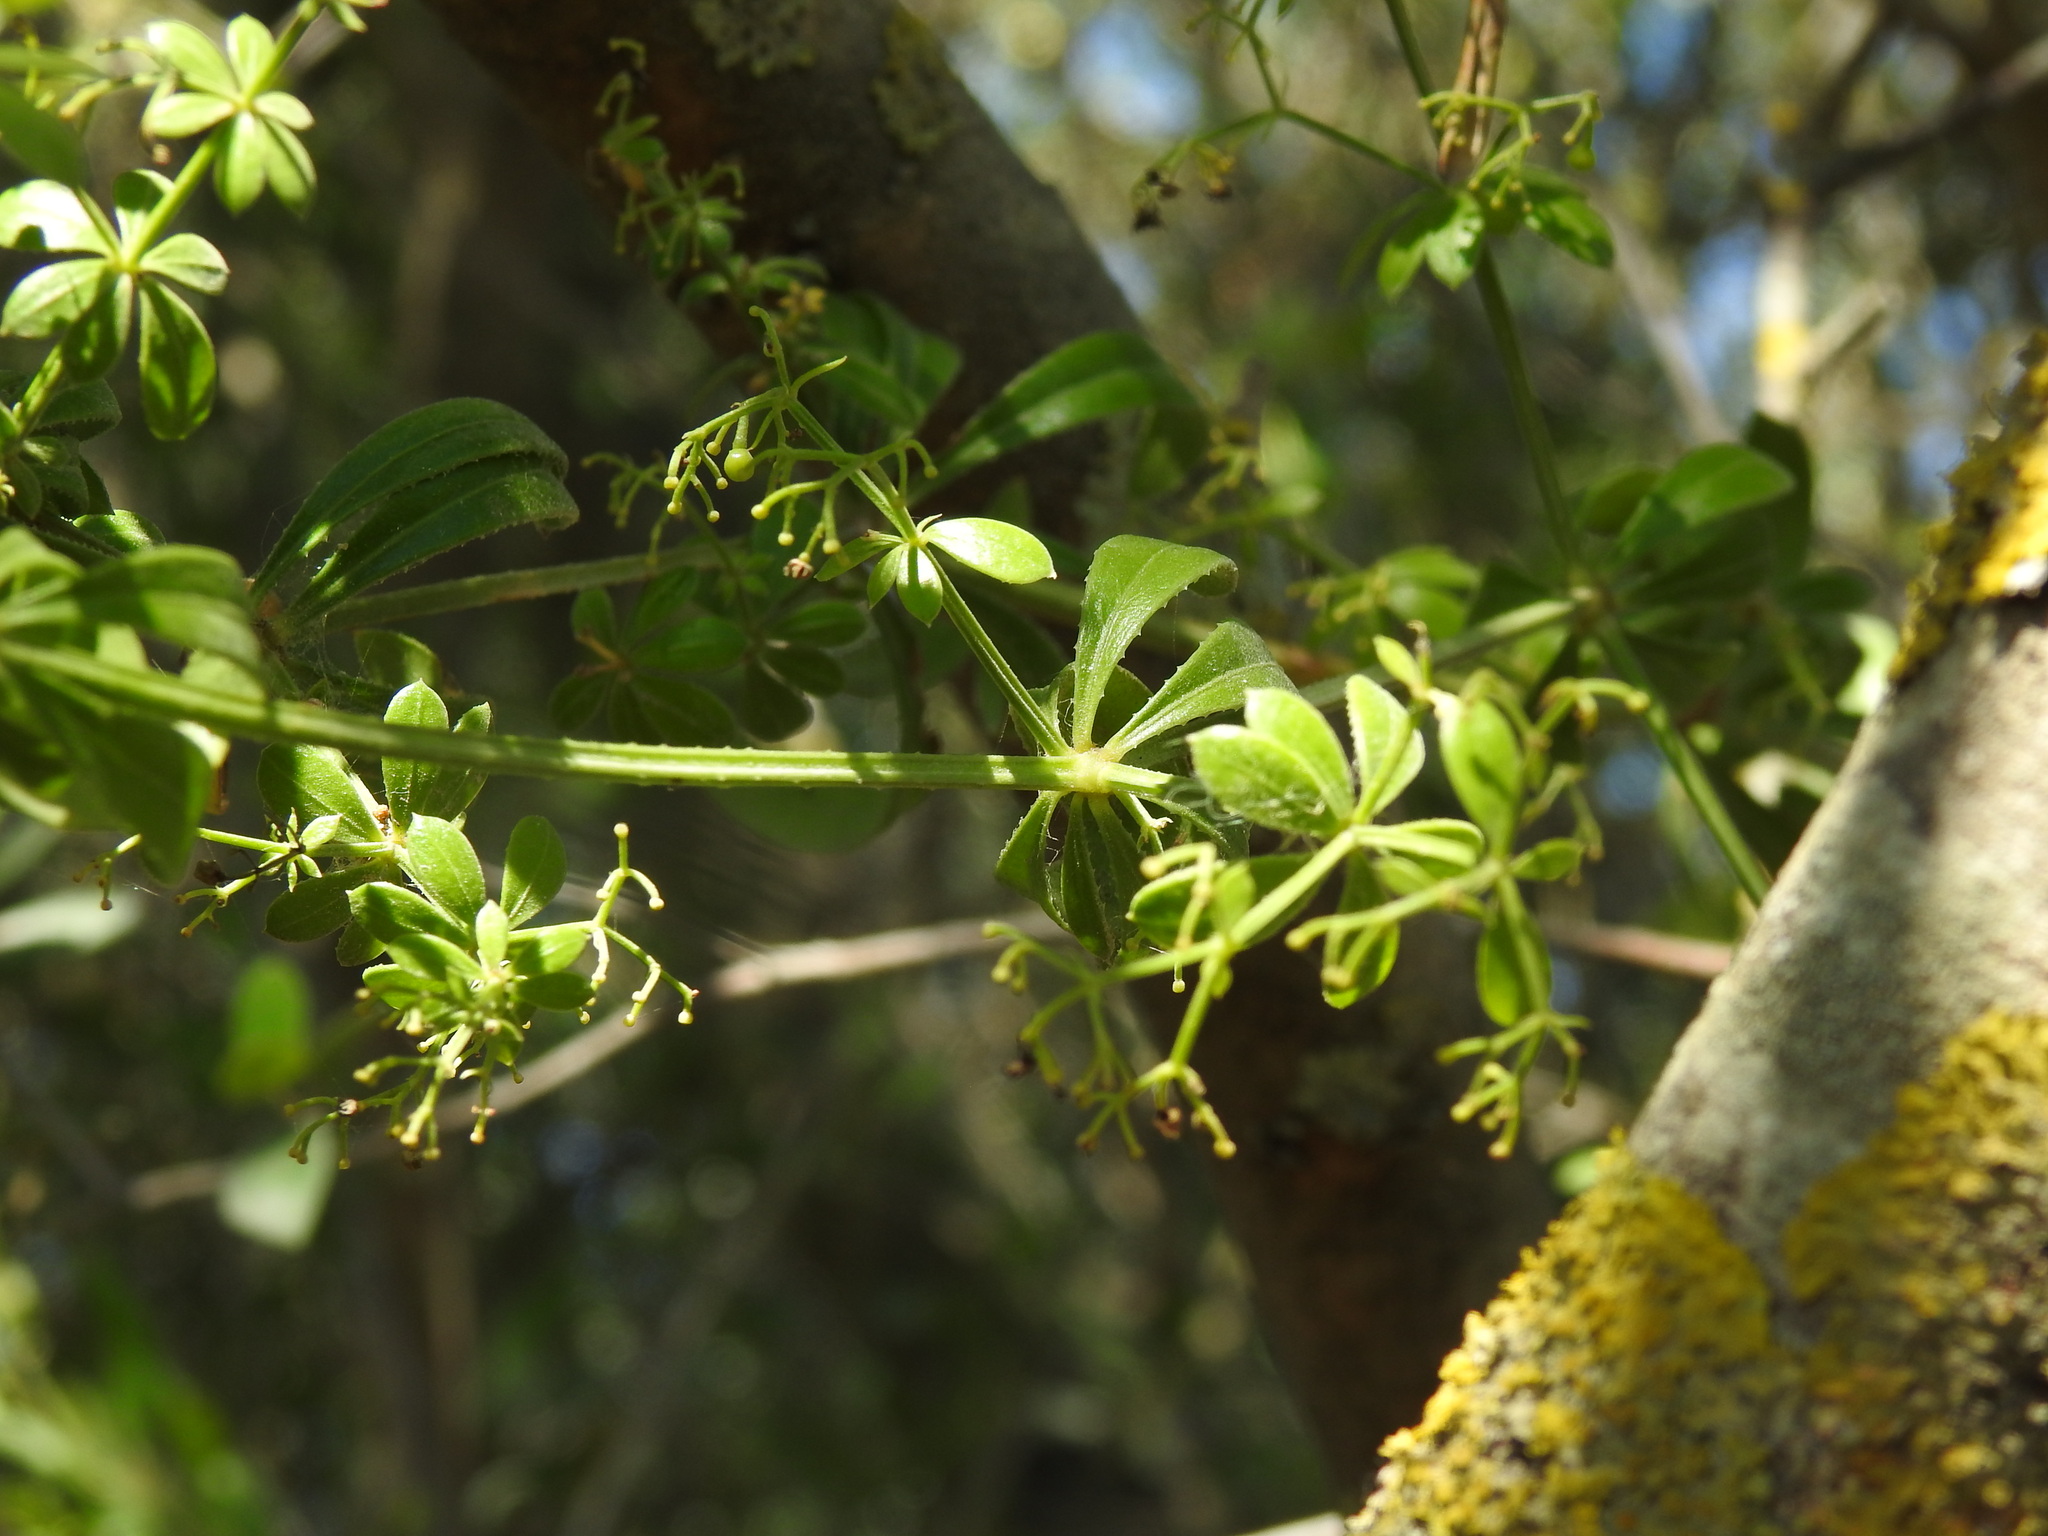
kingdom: Plantae
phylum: Tracheophyta
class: Magnoliopsida
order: Gentianales
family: Rubiaceae
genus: Rubia
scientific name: Rubia peregrina
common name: Wild madder
